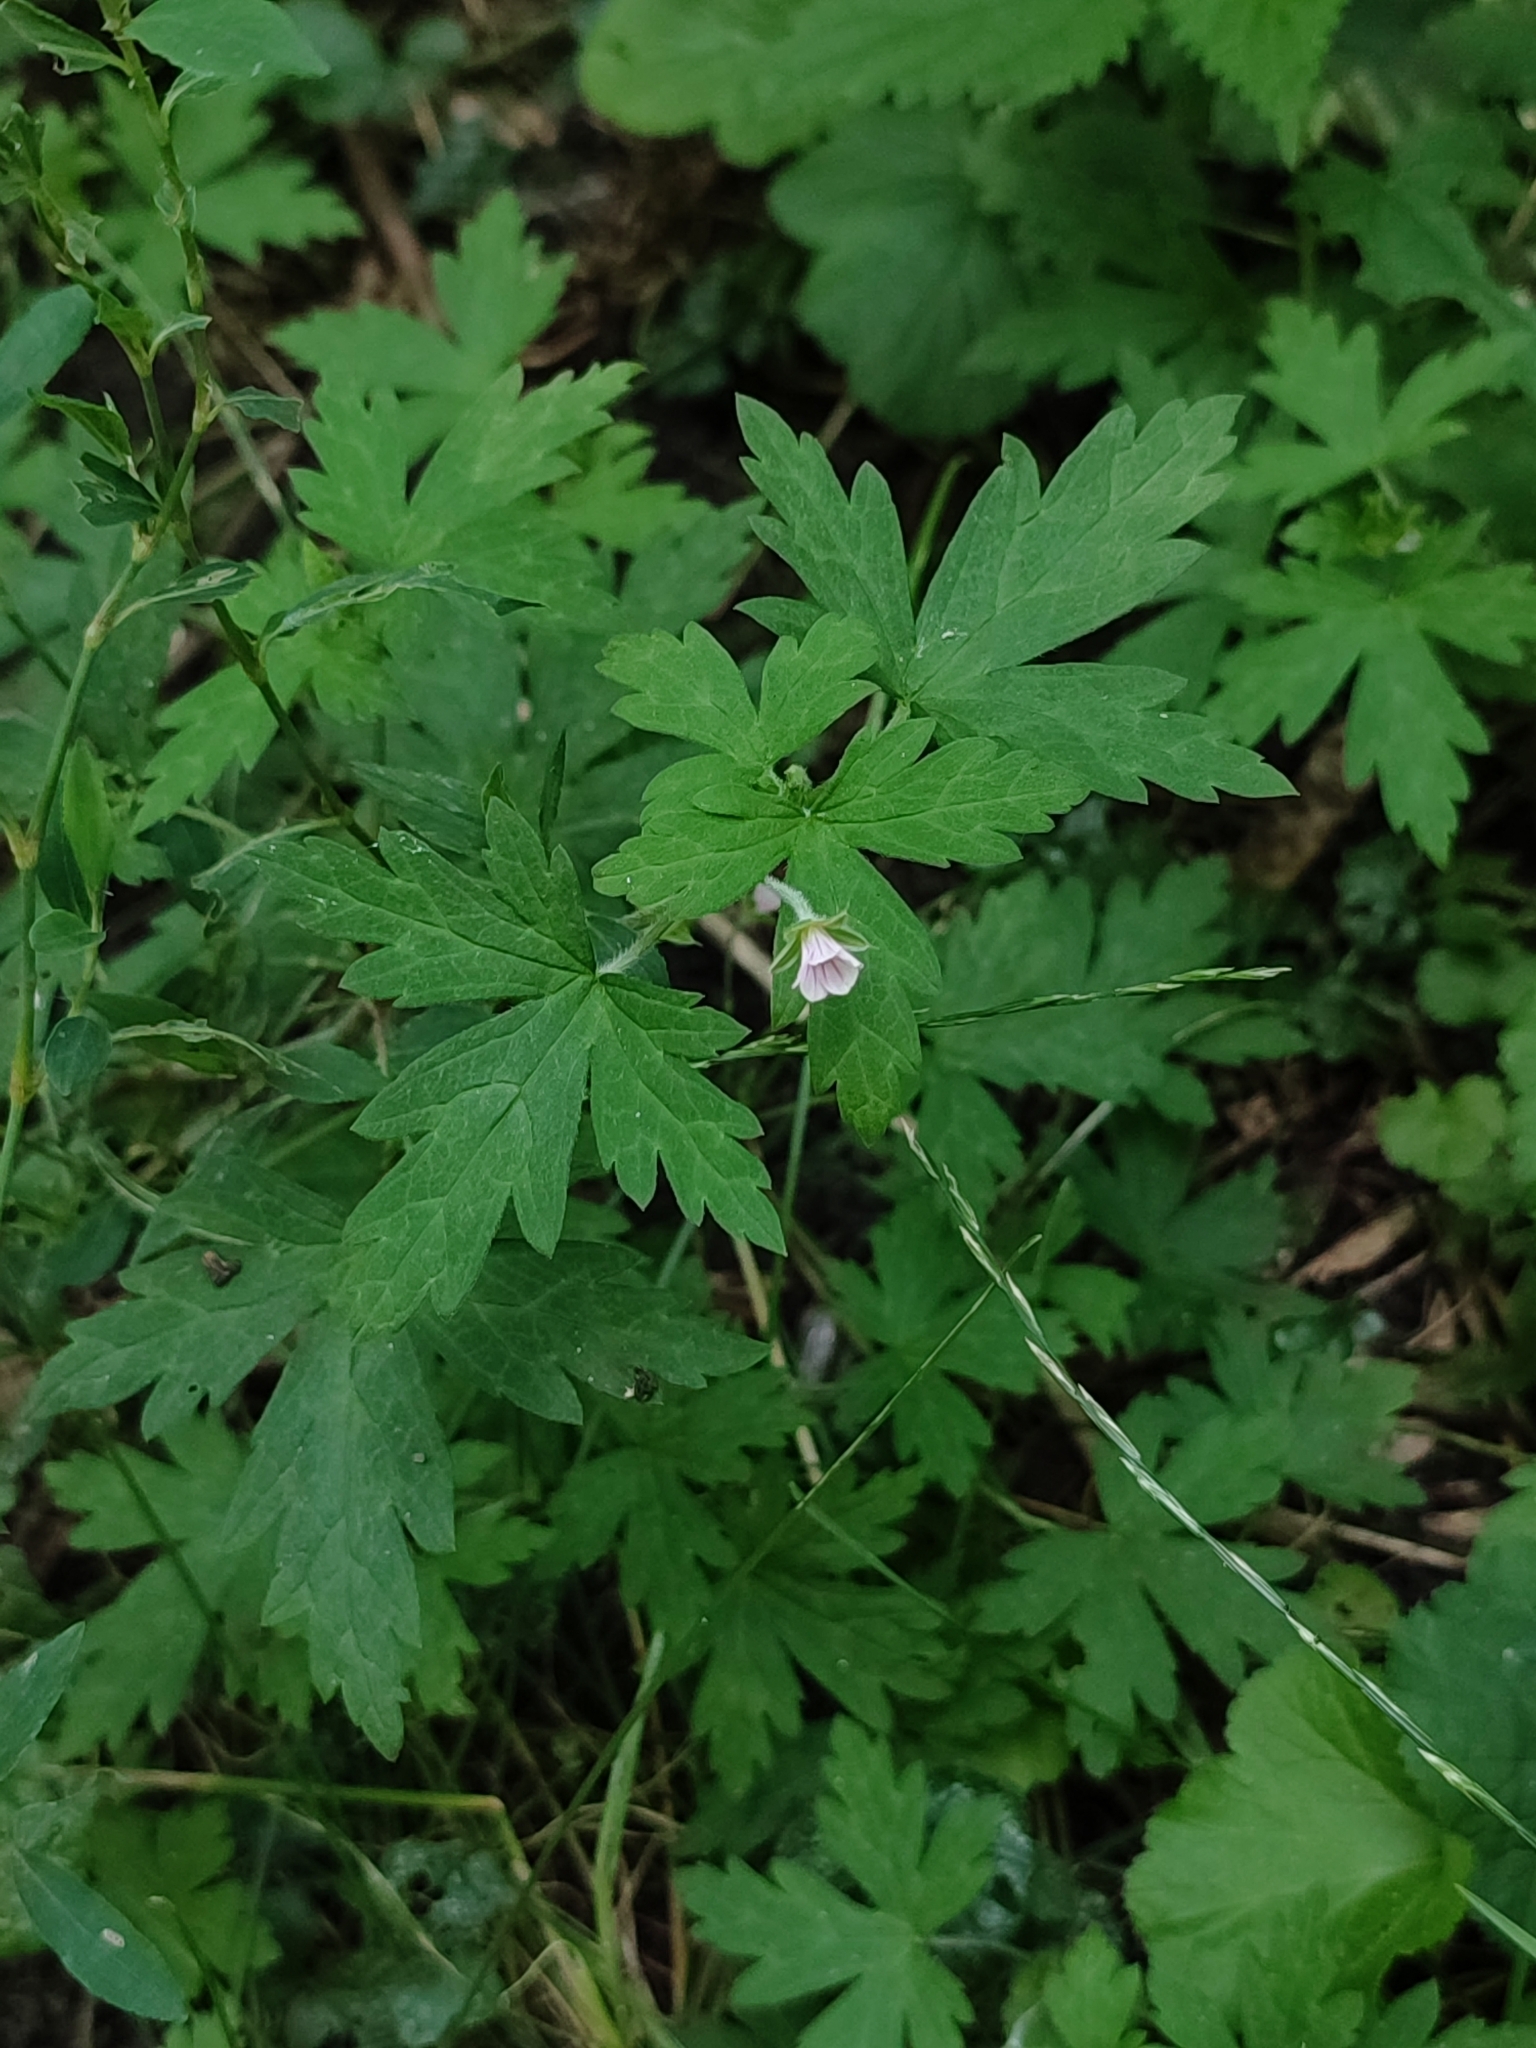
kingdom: Plantae
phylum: Tracheophyta
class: Magnoliopsida
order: Geraniales
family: Geraniaceae
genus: Geranium
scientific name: Geranium sibiricum
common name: Siberian crane's-bill
